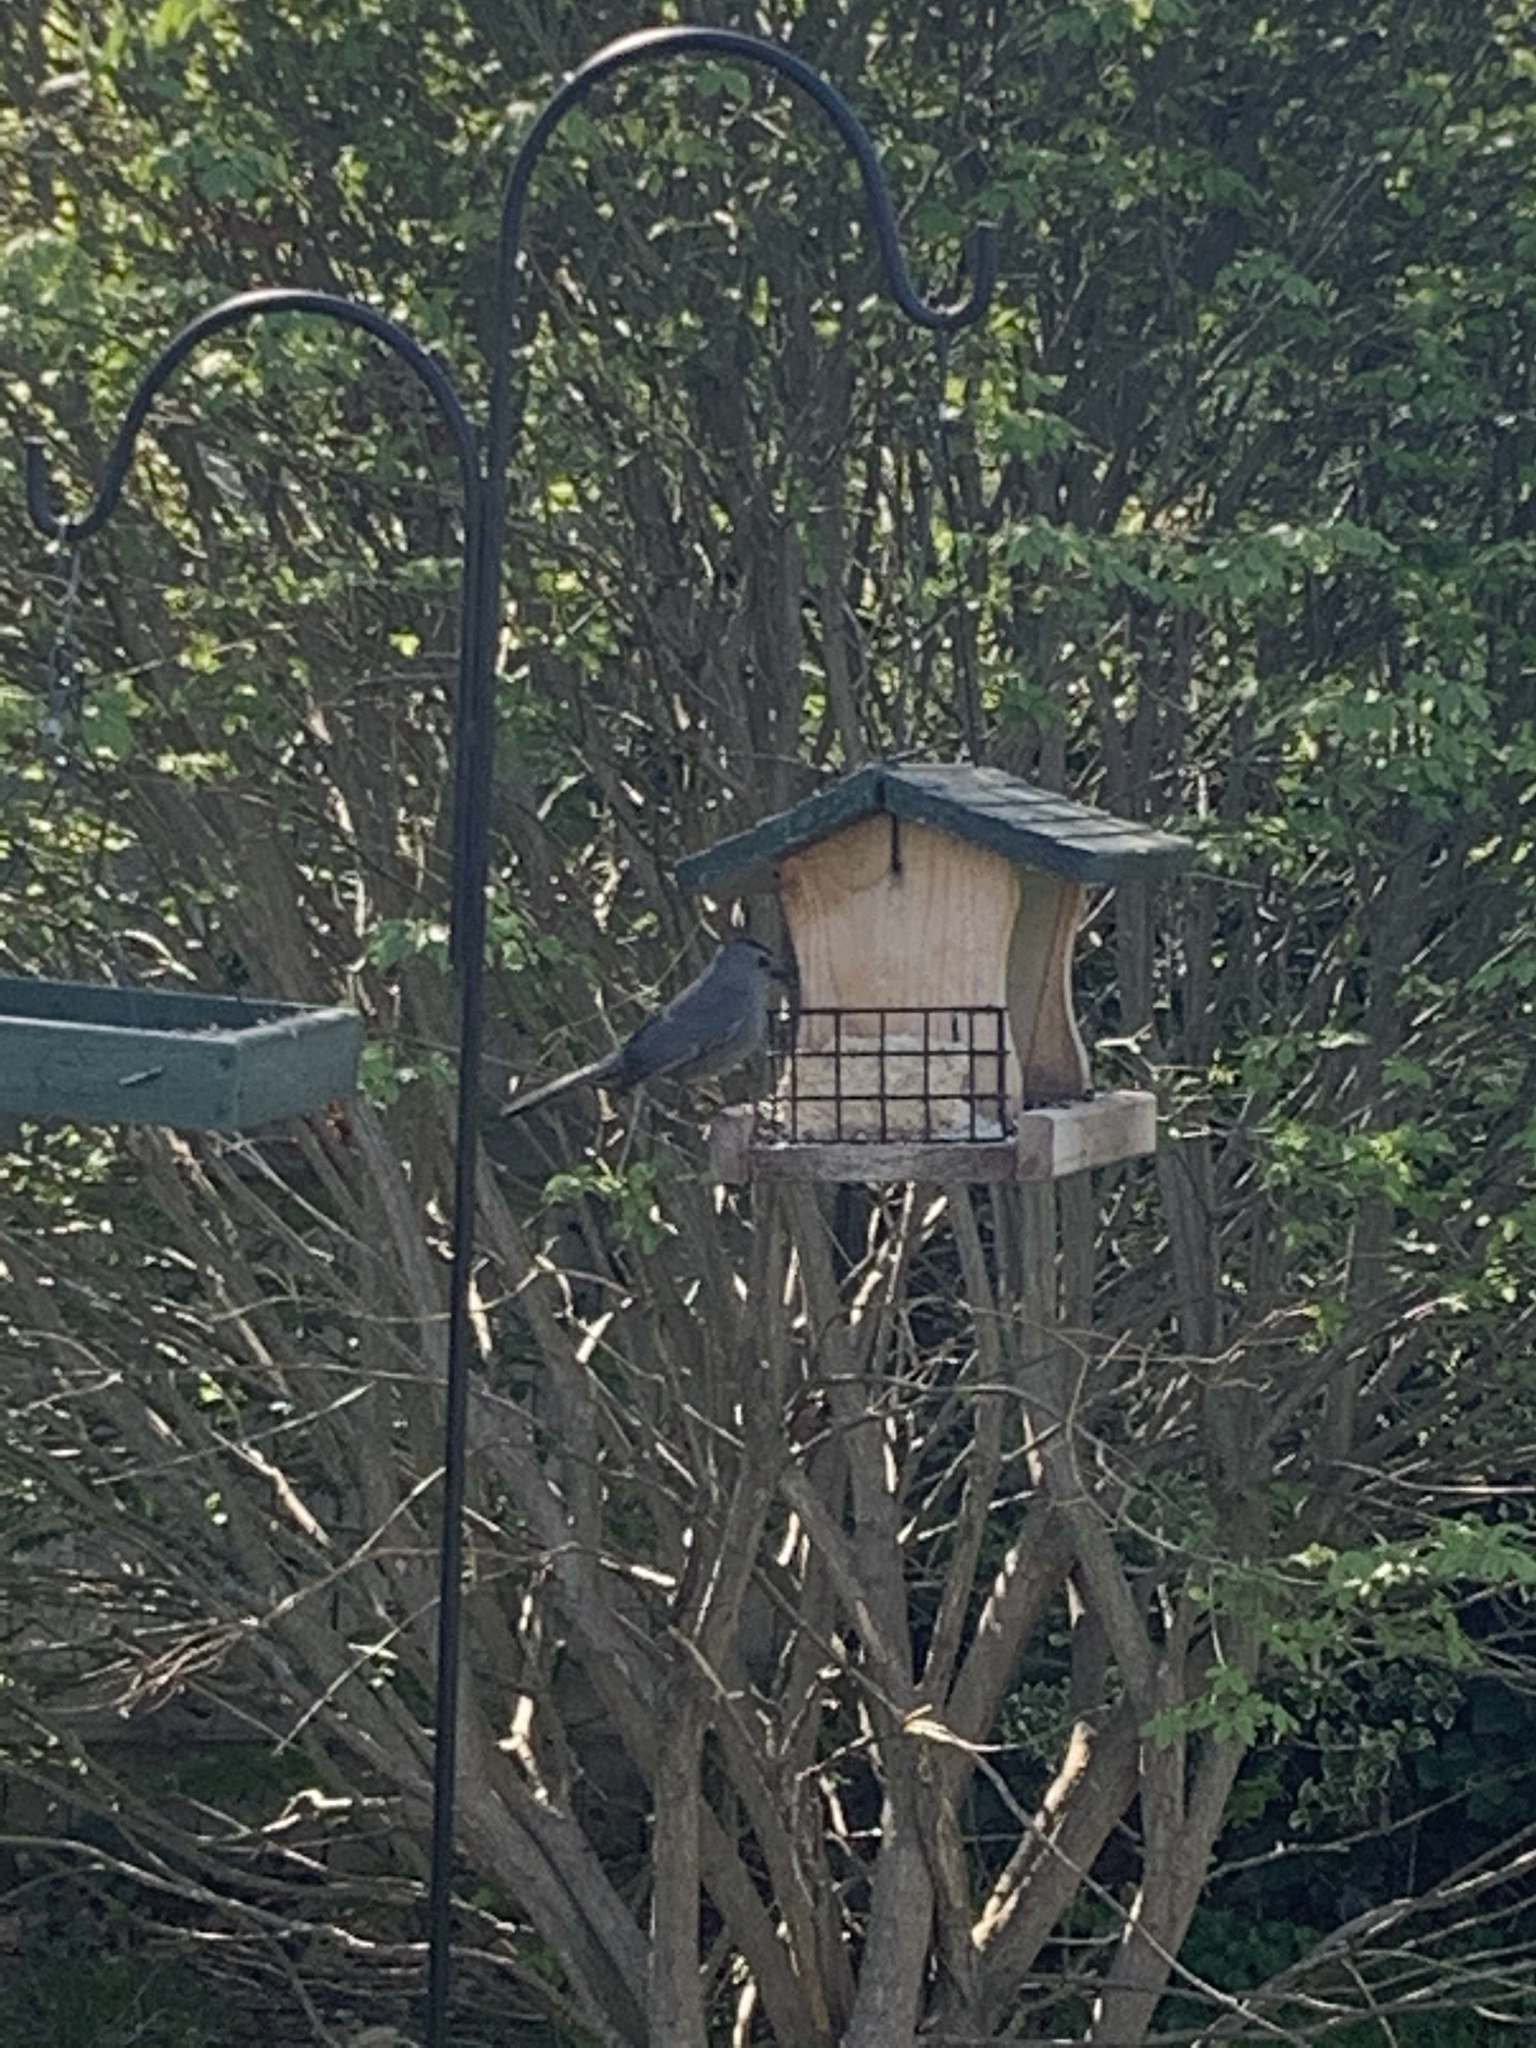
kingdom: Animalia
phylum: Chordata
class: Aves
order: Passeriformes
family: Mimidae
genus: Dumetella
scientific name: Dumetella carolinensis
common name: Gray catbird
